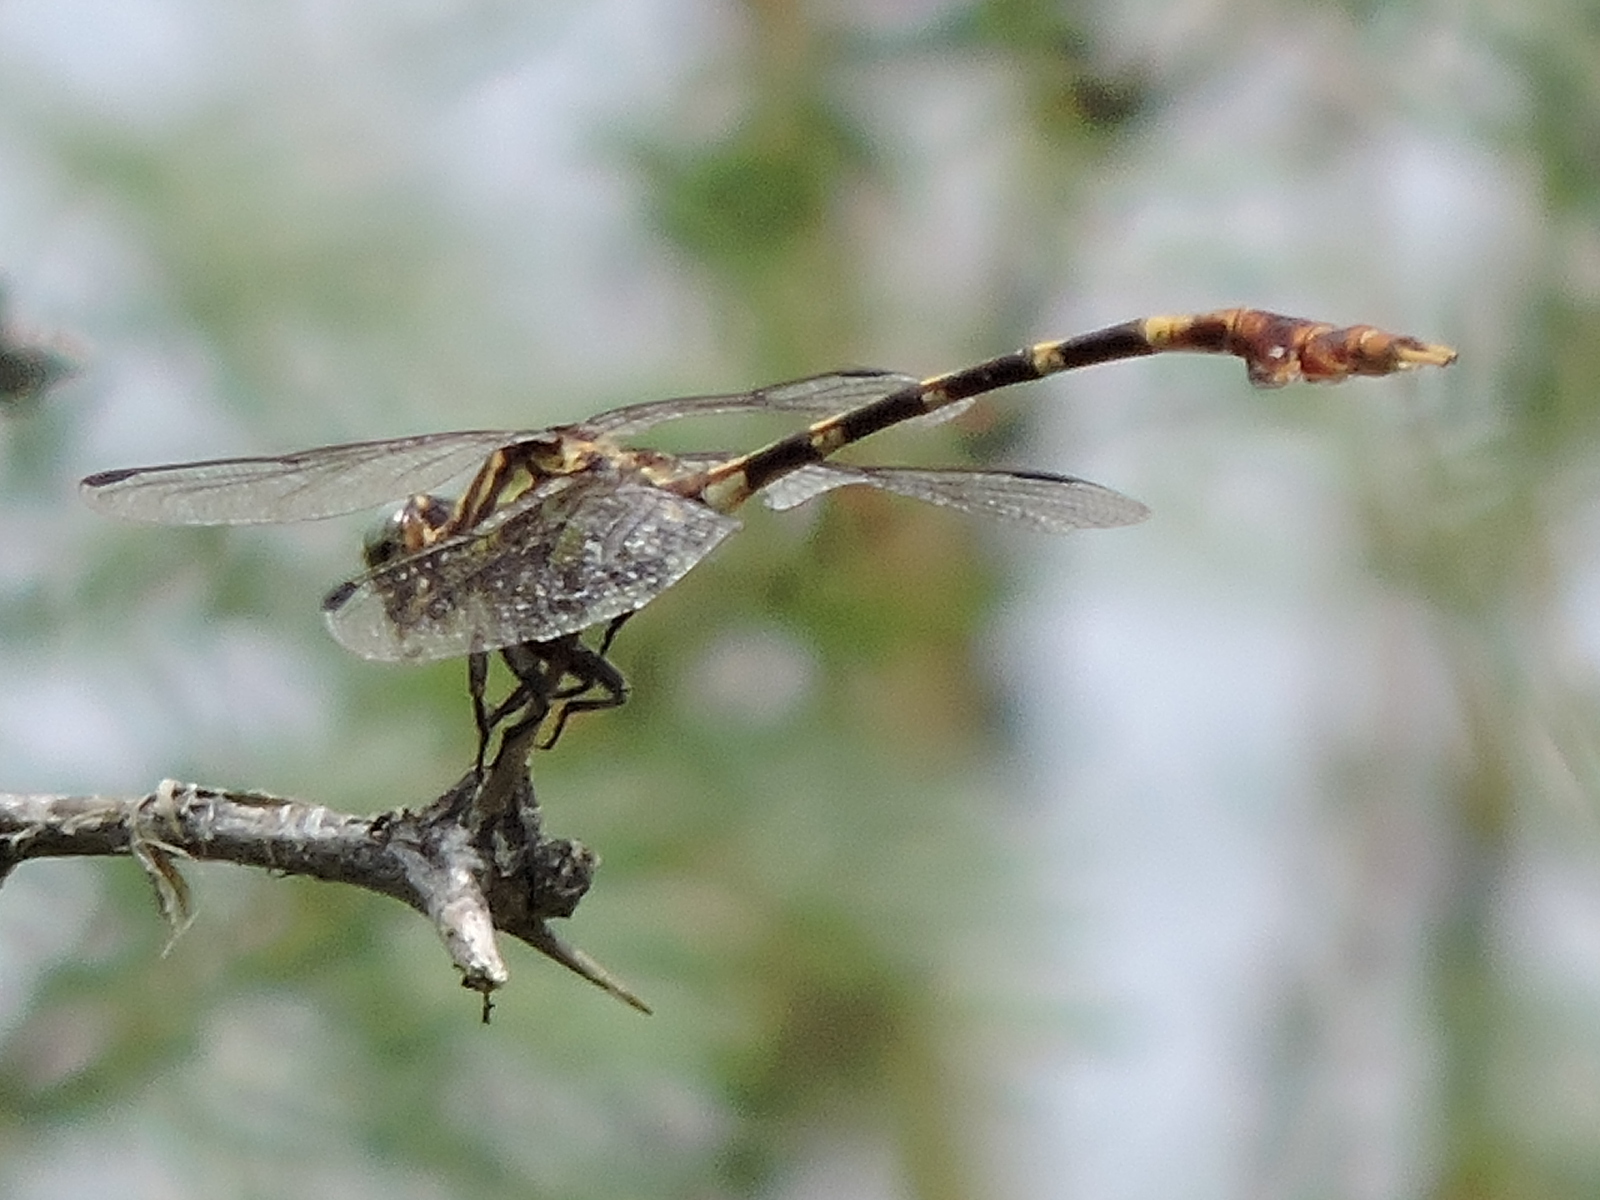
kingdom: Animalia
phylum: Arthropoda
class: Insecta
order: Odonata
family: Gomphidae
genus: Phyllogomphoides
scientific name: Phyllogomphoides albrighti
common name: Five-striped leaftail
